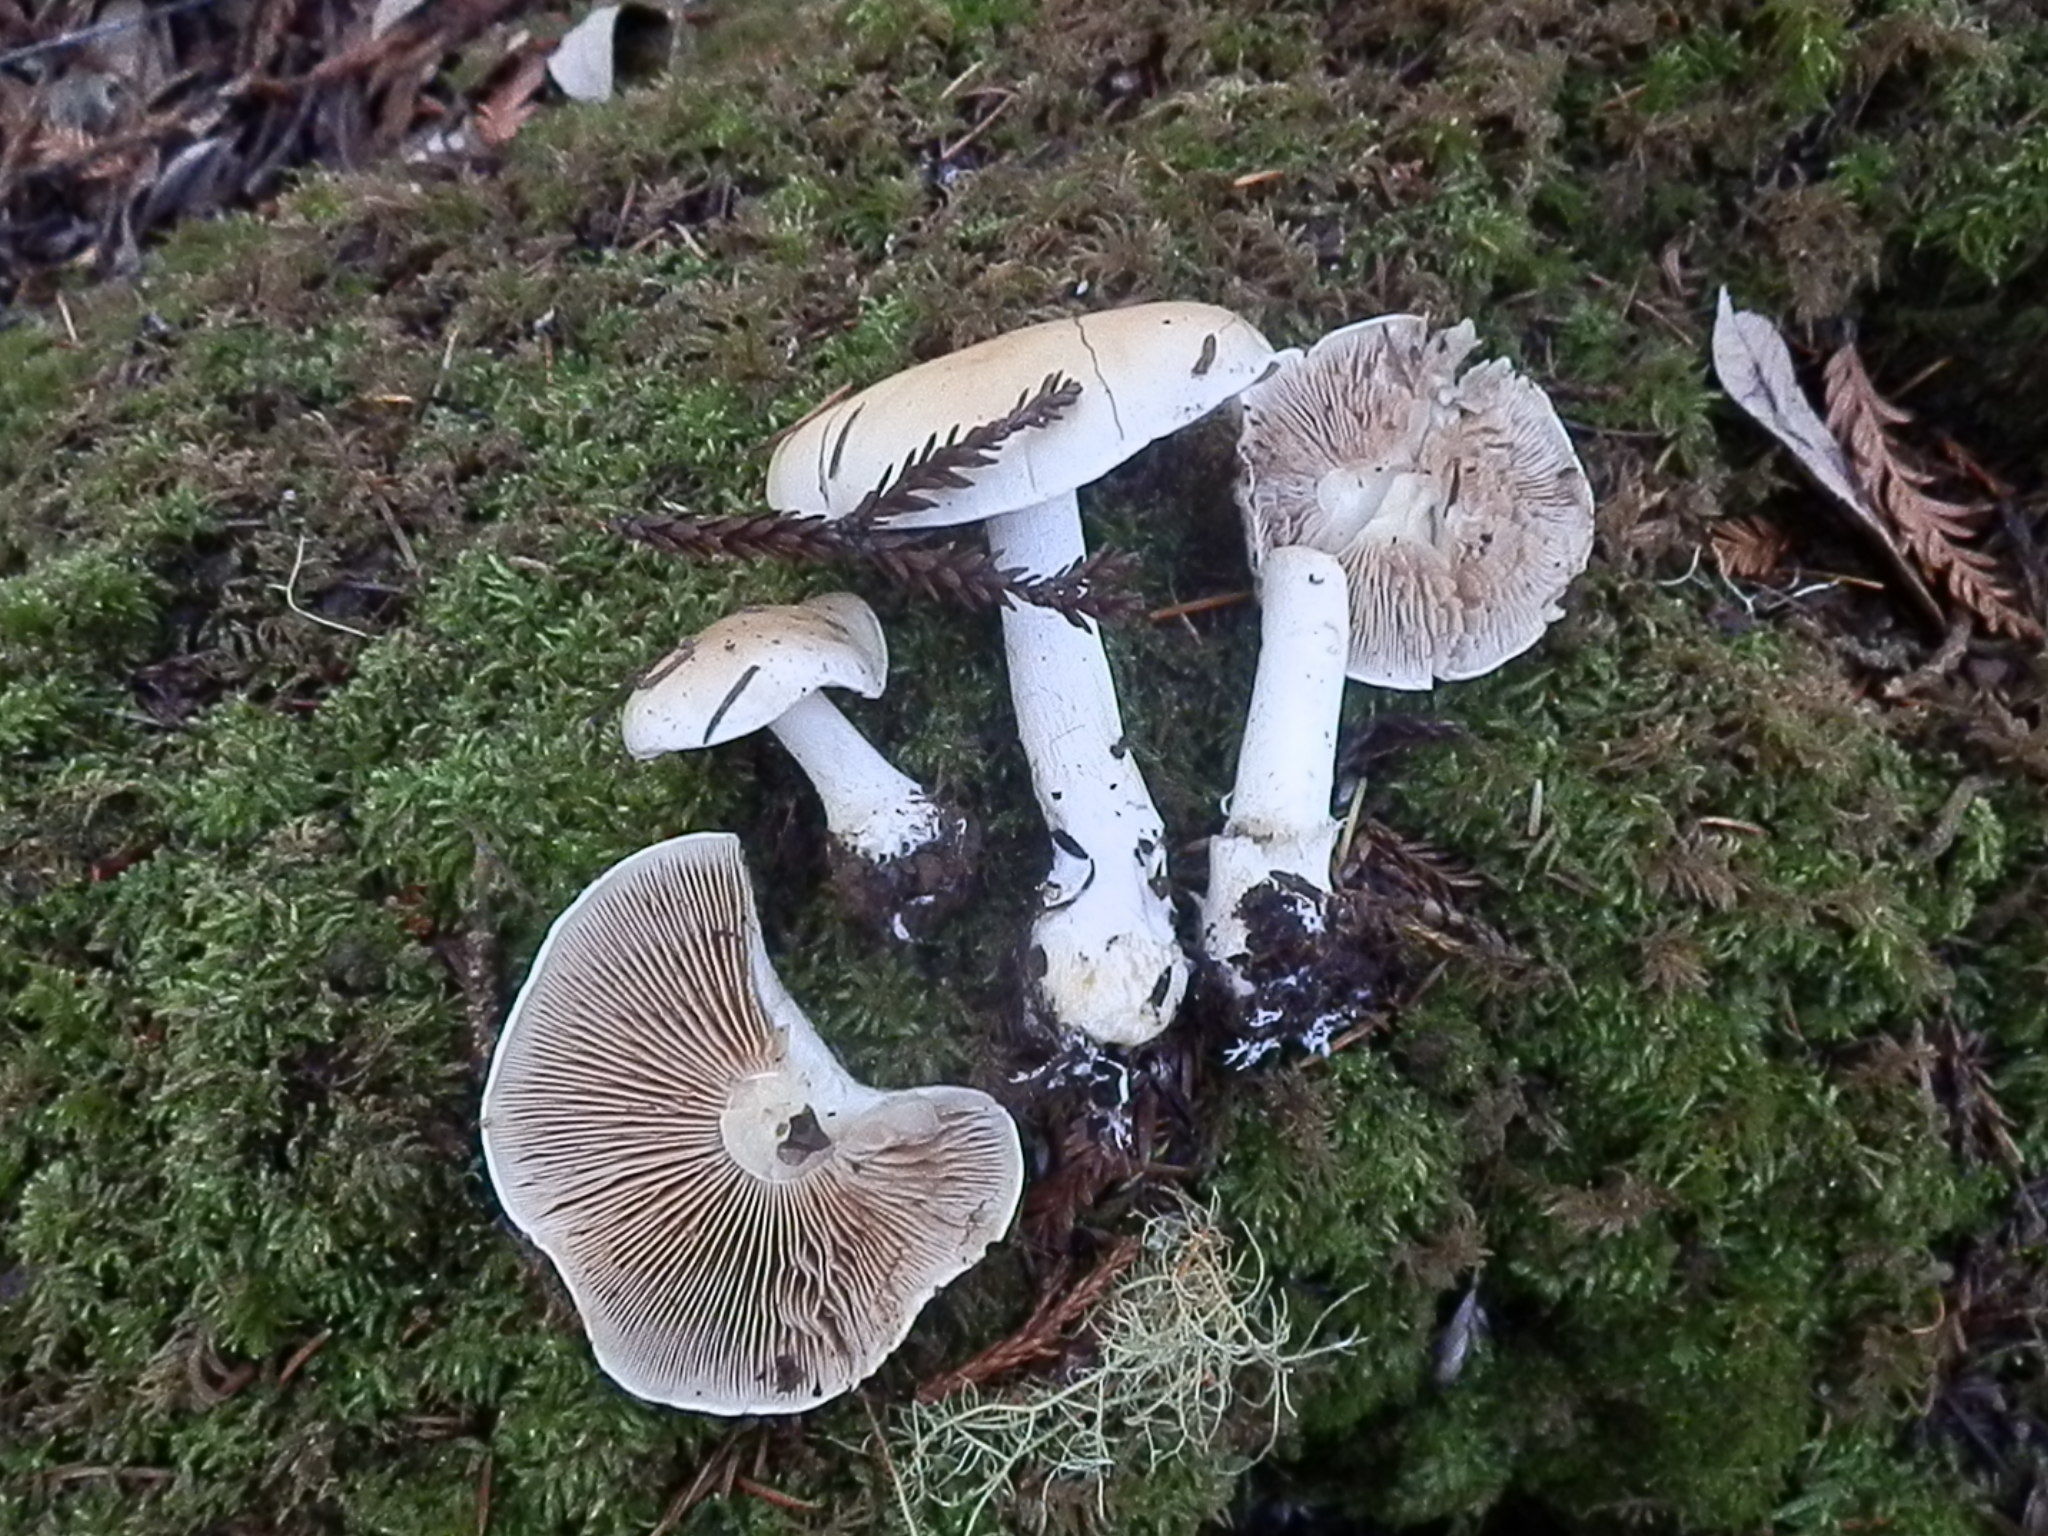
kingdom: Fungi
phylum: Basidiomycota
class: Agaricomycetes
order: Agaricales
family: Hymenogastraceae
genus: Hebeloma
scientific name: Hebeloma leucosarx
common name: Birch poisonpie
